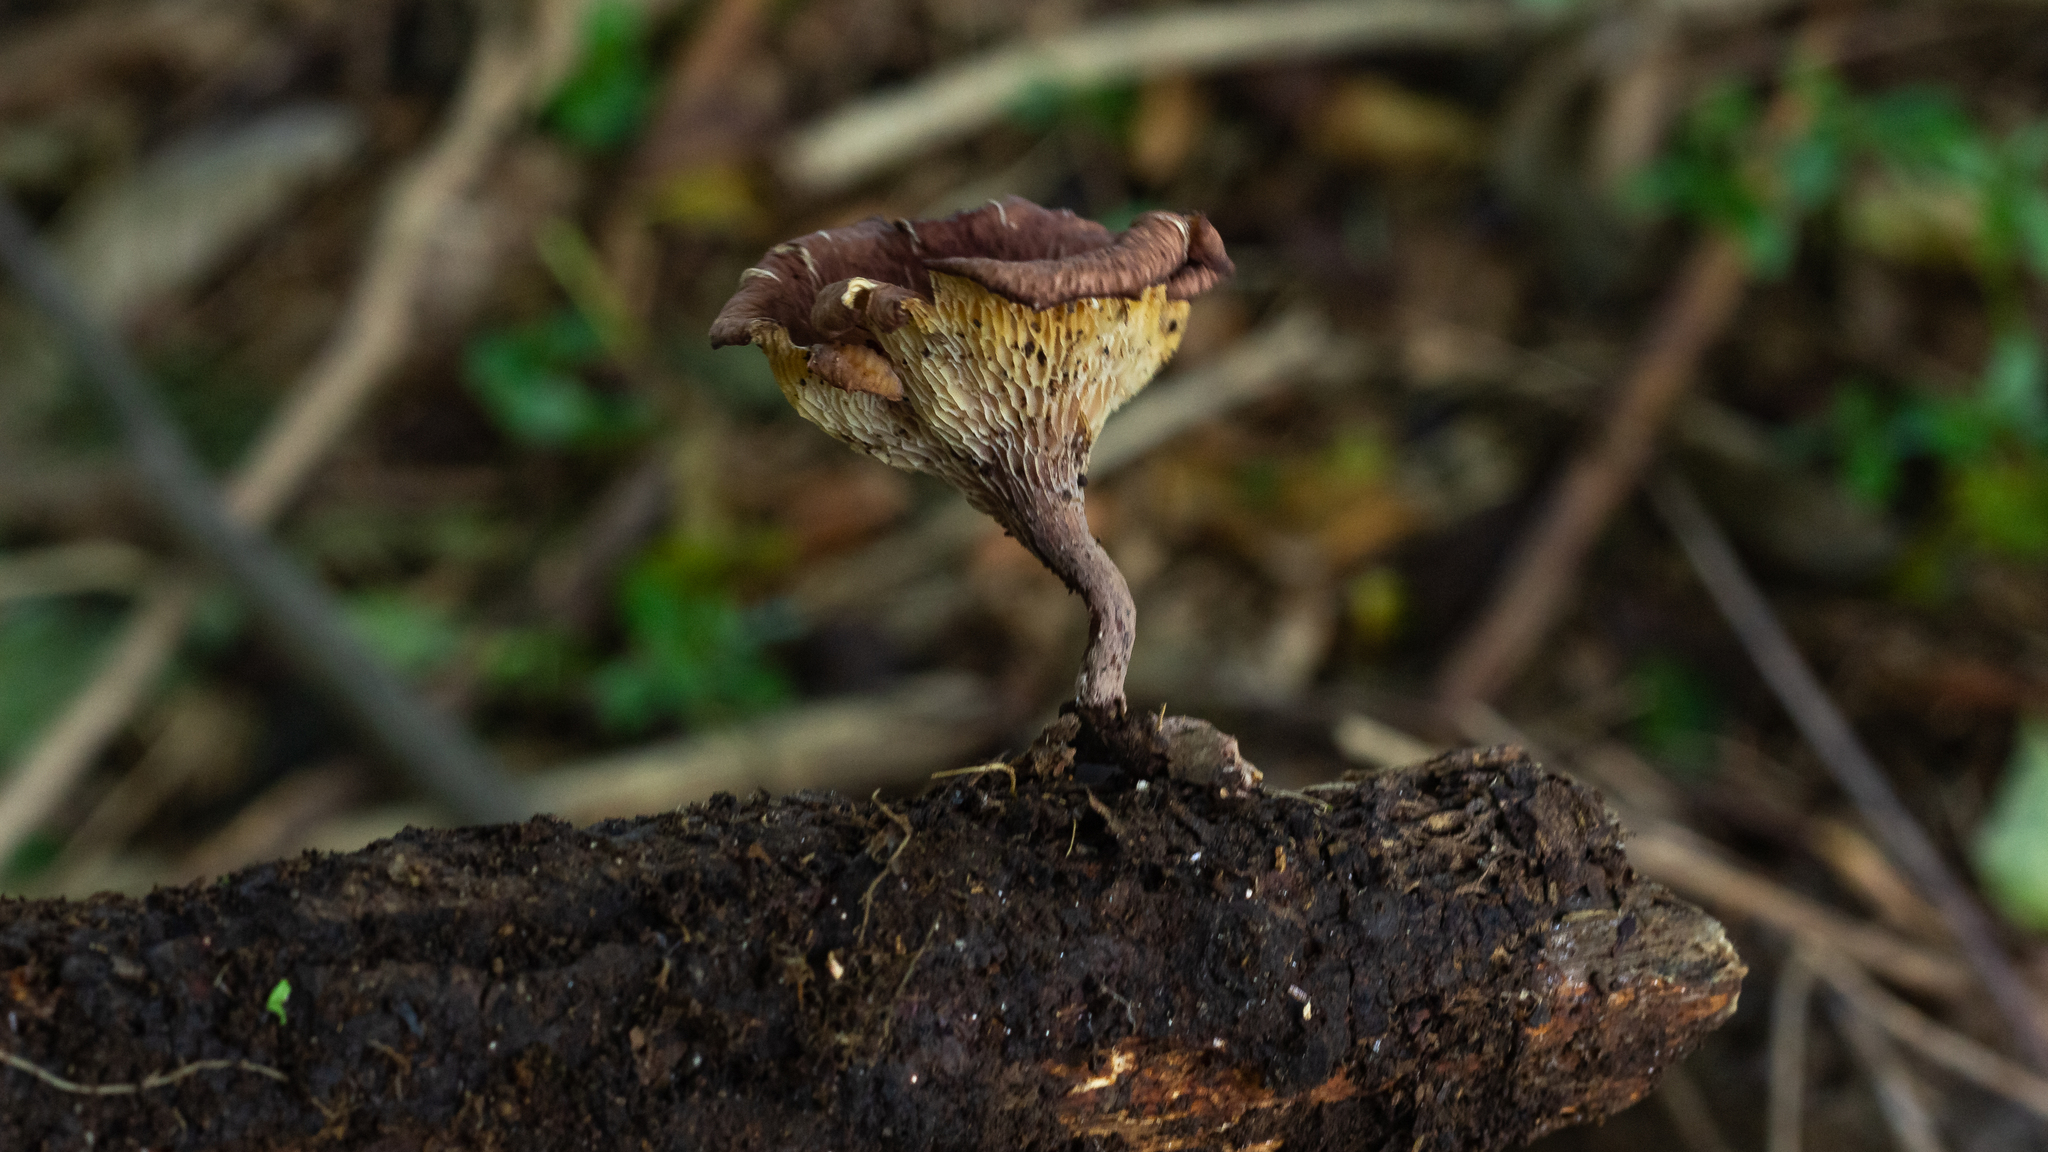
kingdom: Fungi
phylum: Basidiomycota
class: Agaricomycetes
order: Polyporales
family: Polyporaceae
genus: Neofavolus
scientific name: Neofavolus subpurpurascens
